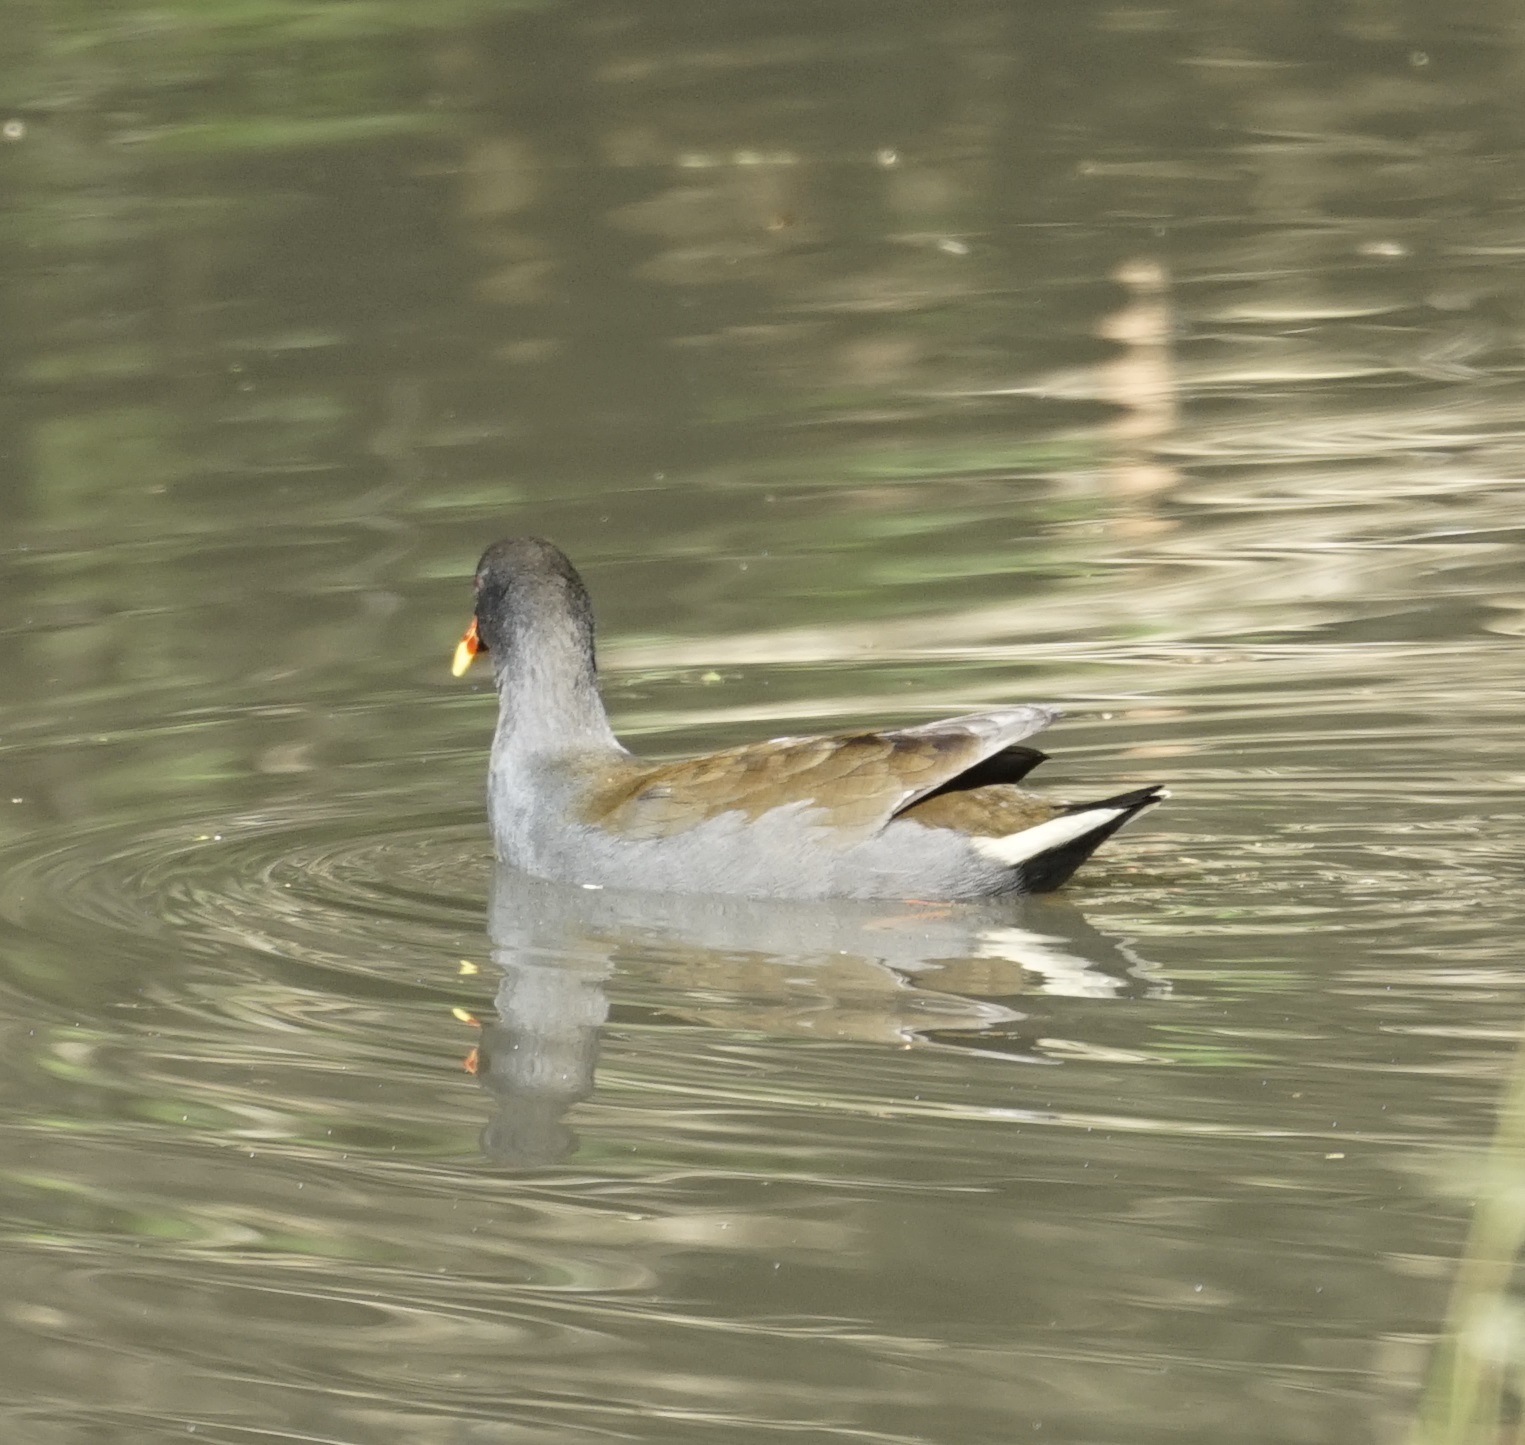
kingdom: Animalia
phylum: Chordata
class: Aves
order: Gruiformes
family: Rallidae
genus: Gallinula
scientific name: Gallinula tenebrosa
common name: Dusky moorhen
